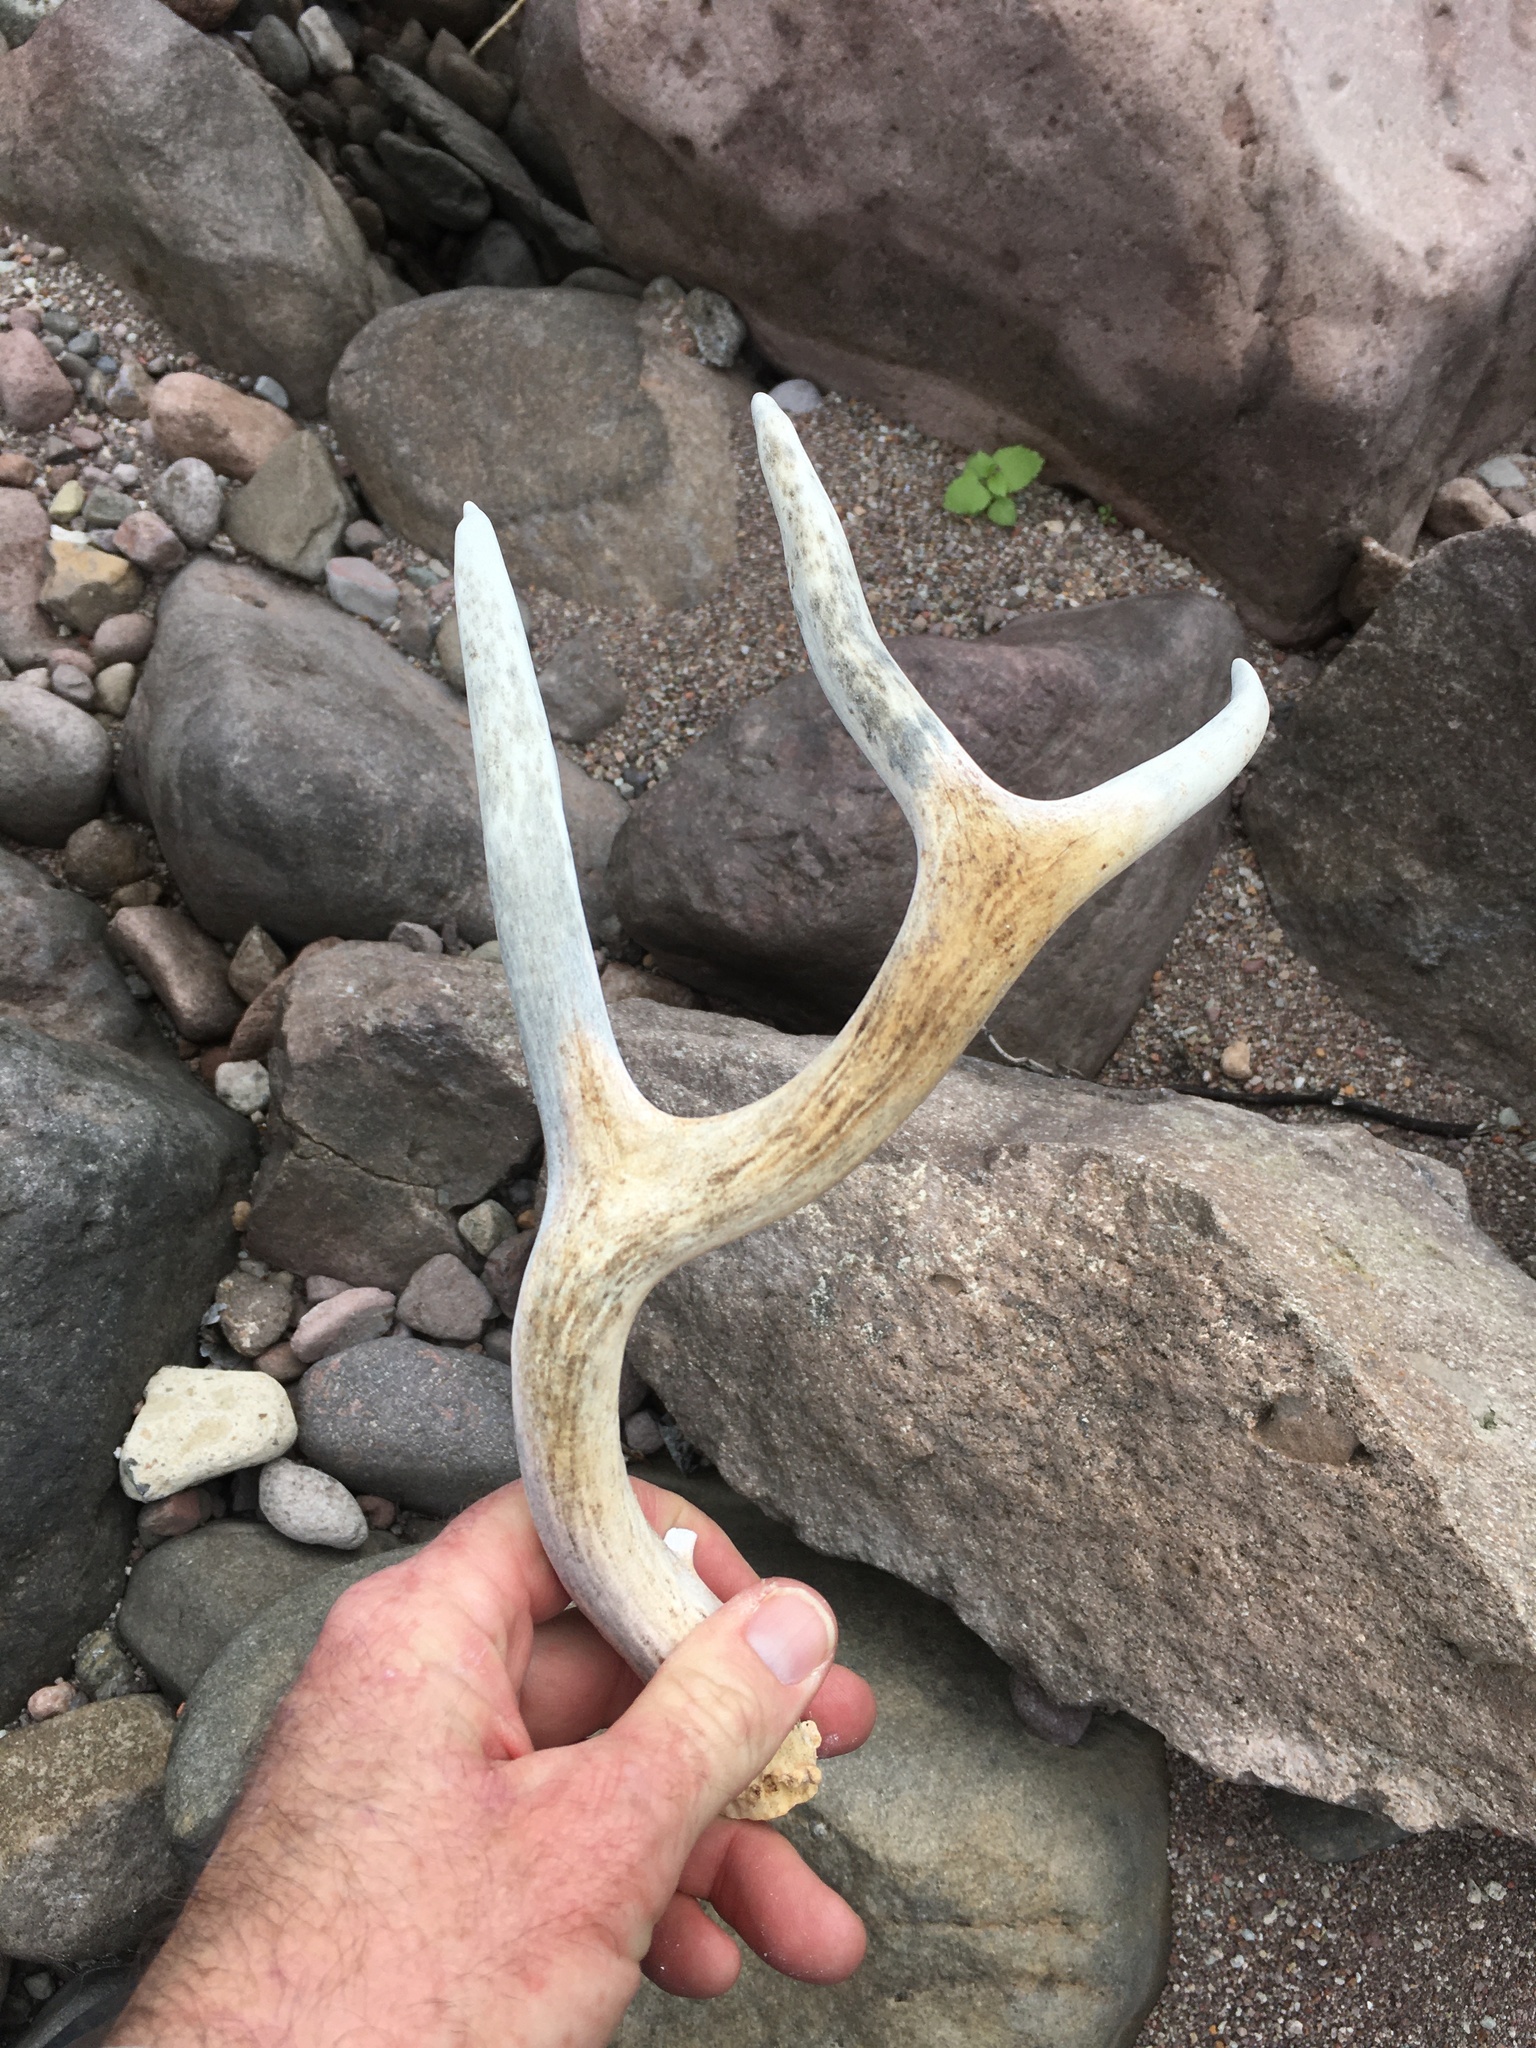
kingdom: Animalia
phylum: Chordata
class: Mammalia
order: Artiodactyla
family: Cervidae
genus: Odocoileus
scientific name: Odocoileus hemionus
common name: Mule deer
